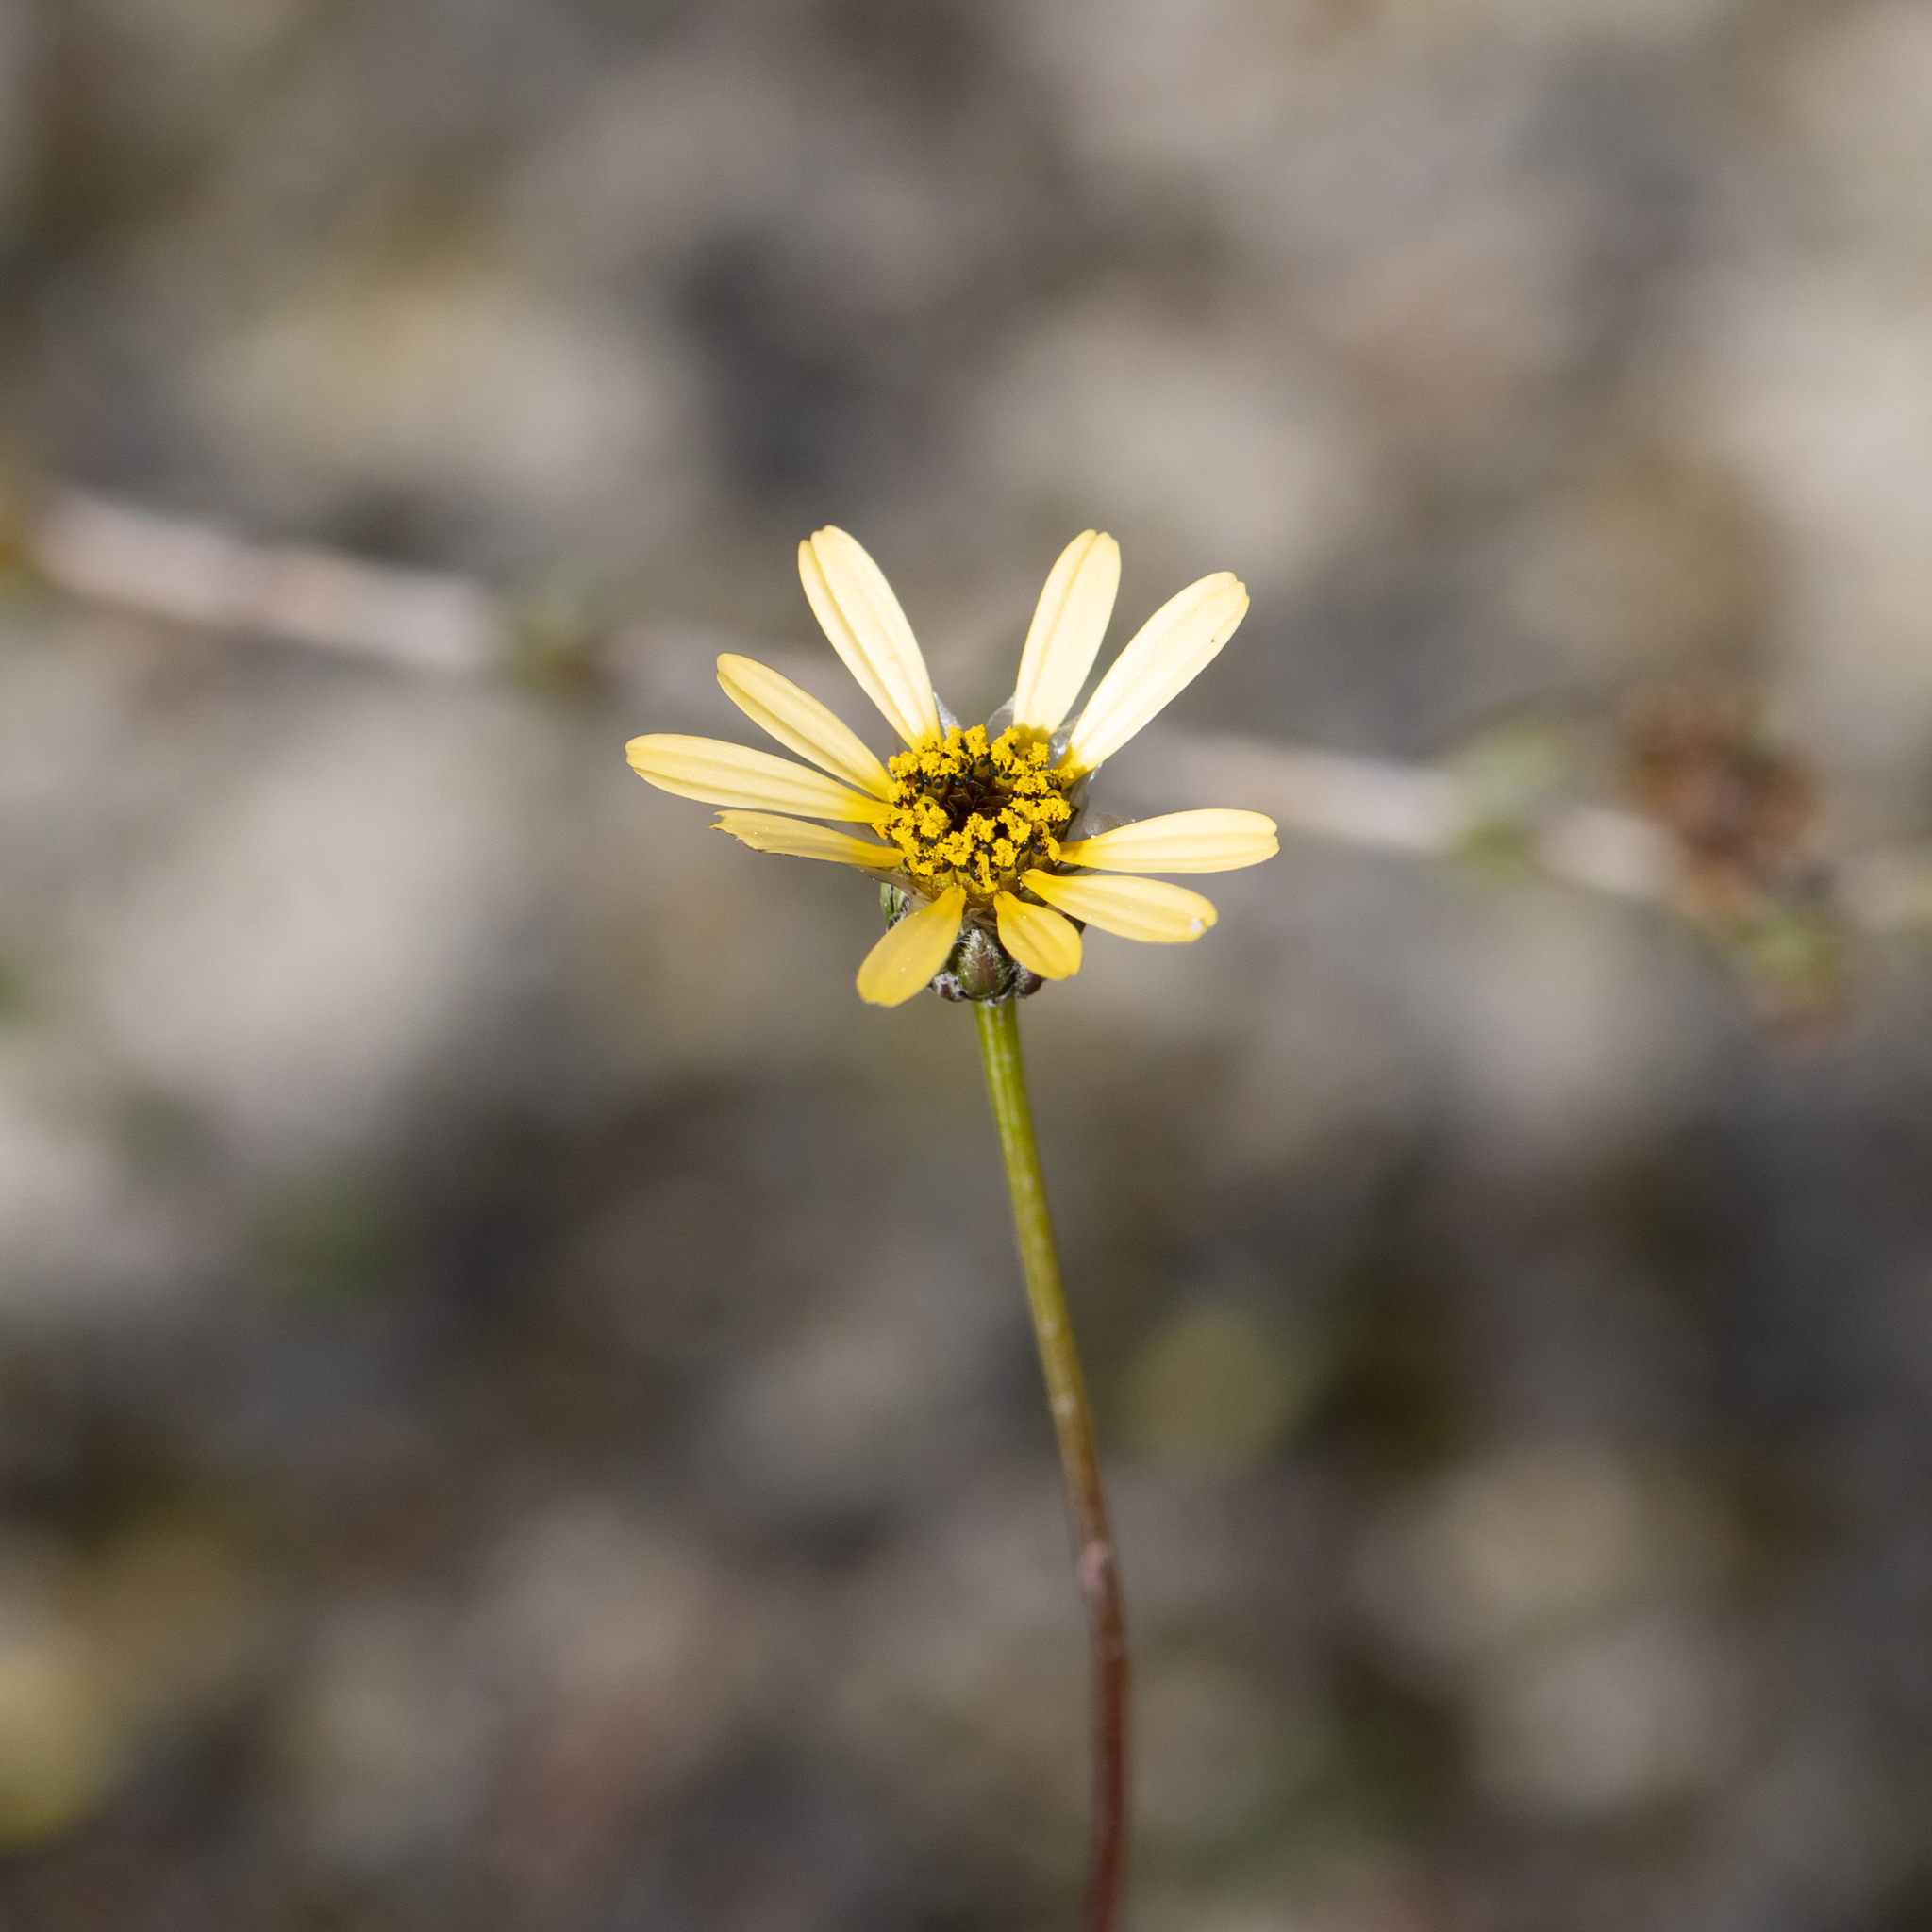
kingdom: Plantae
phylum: Tracheophyta
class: Magnoliopsida
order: Asterales
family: Asteraceae
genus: Ursinia
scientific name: Ursinia anthemoides
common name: Ursinia
